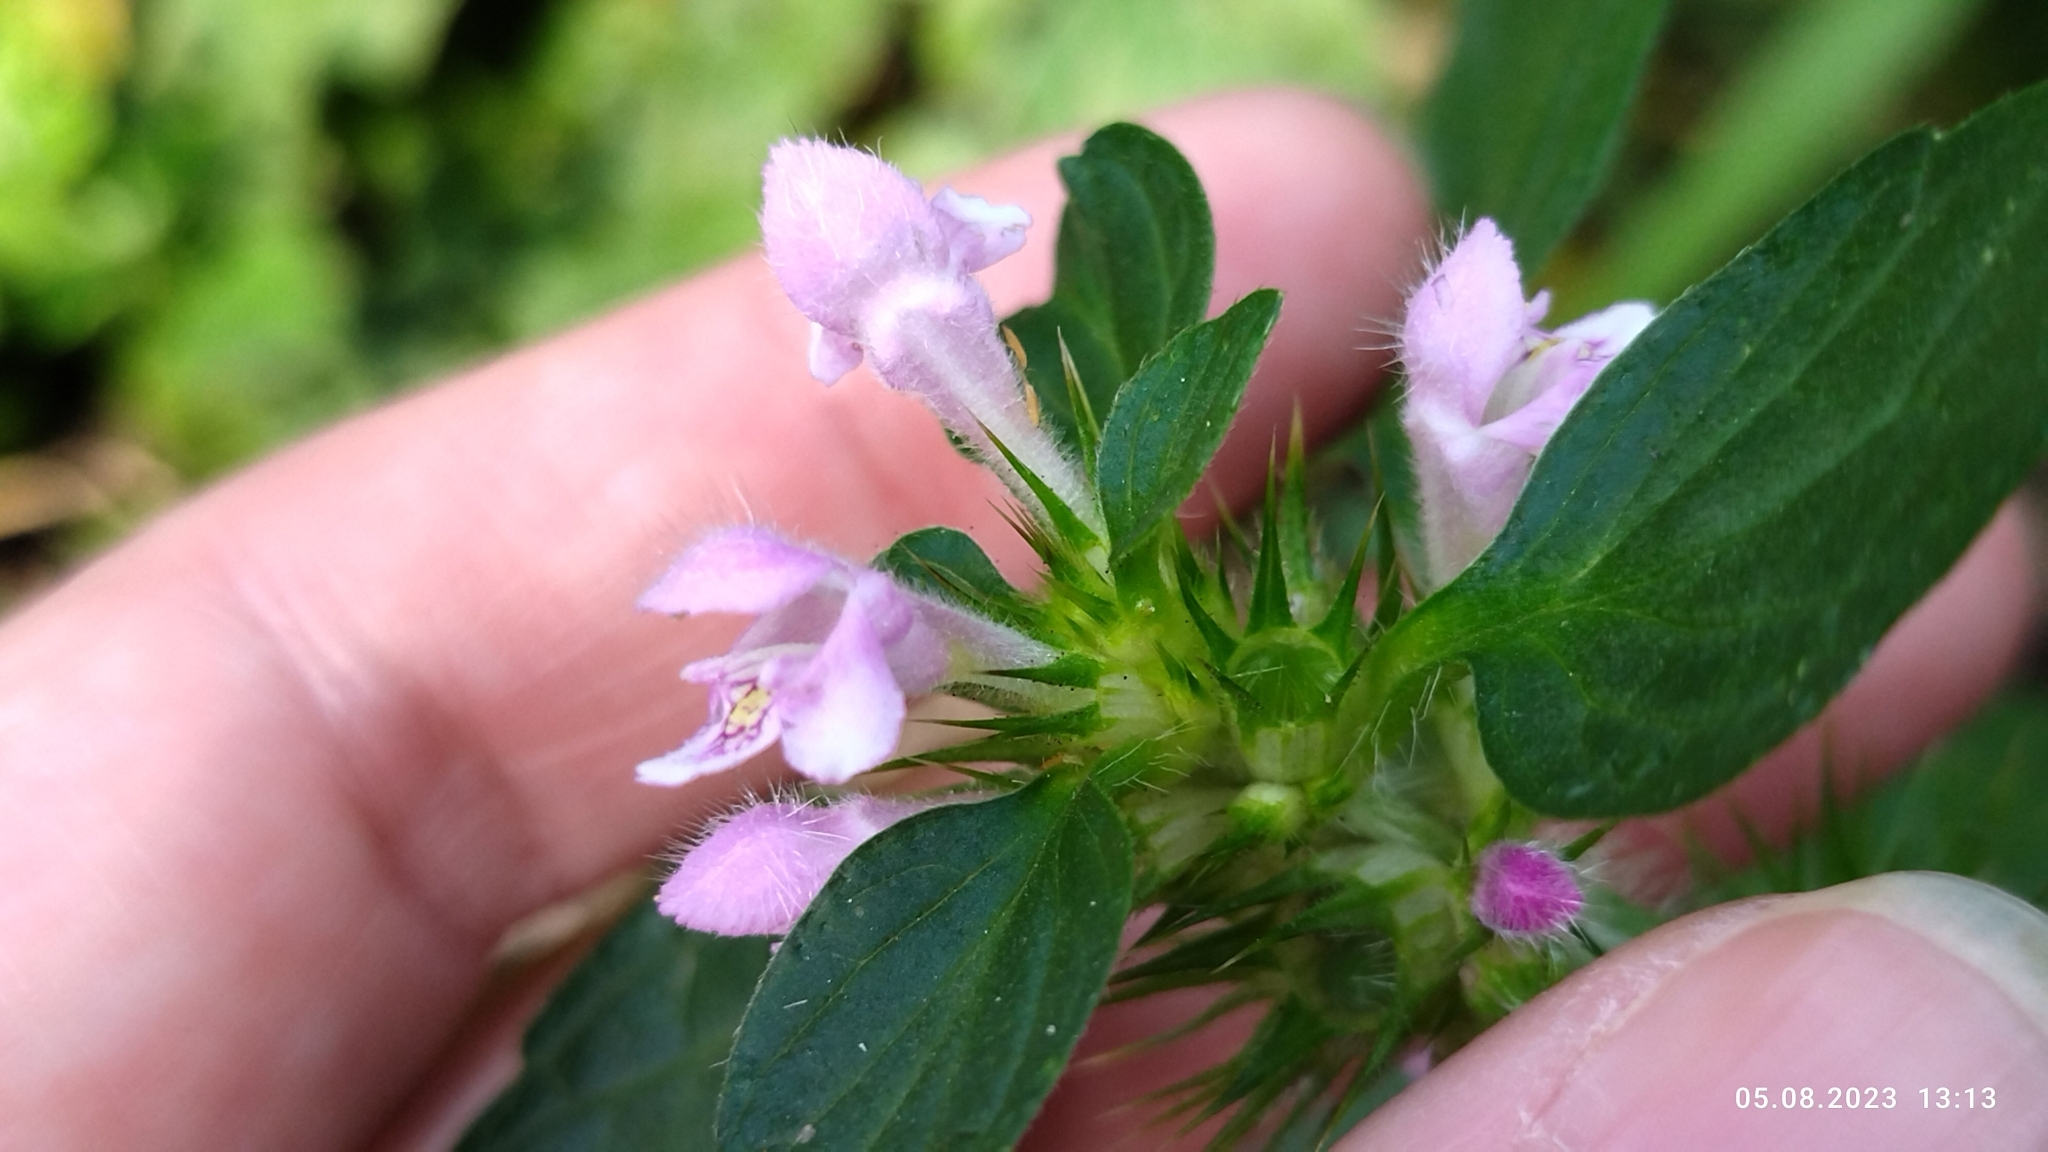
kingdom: Plantae
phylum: Tracheophyta
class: Magnoliopsida
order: Lamiales
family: Lamiaceae
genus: Galeopsis
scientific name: Galeopsis tetrahit
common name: Common hemp-nettle
